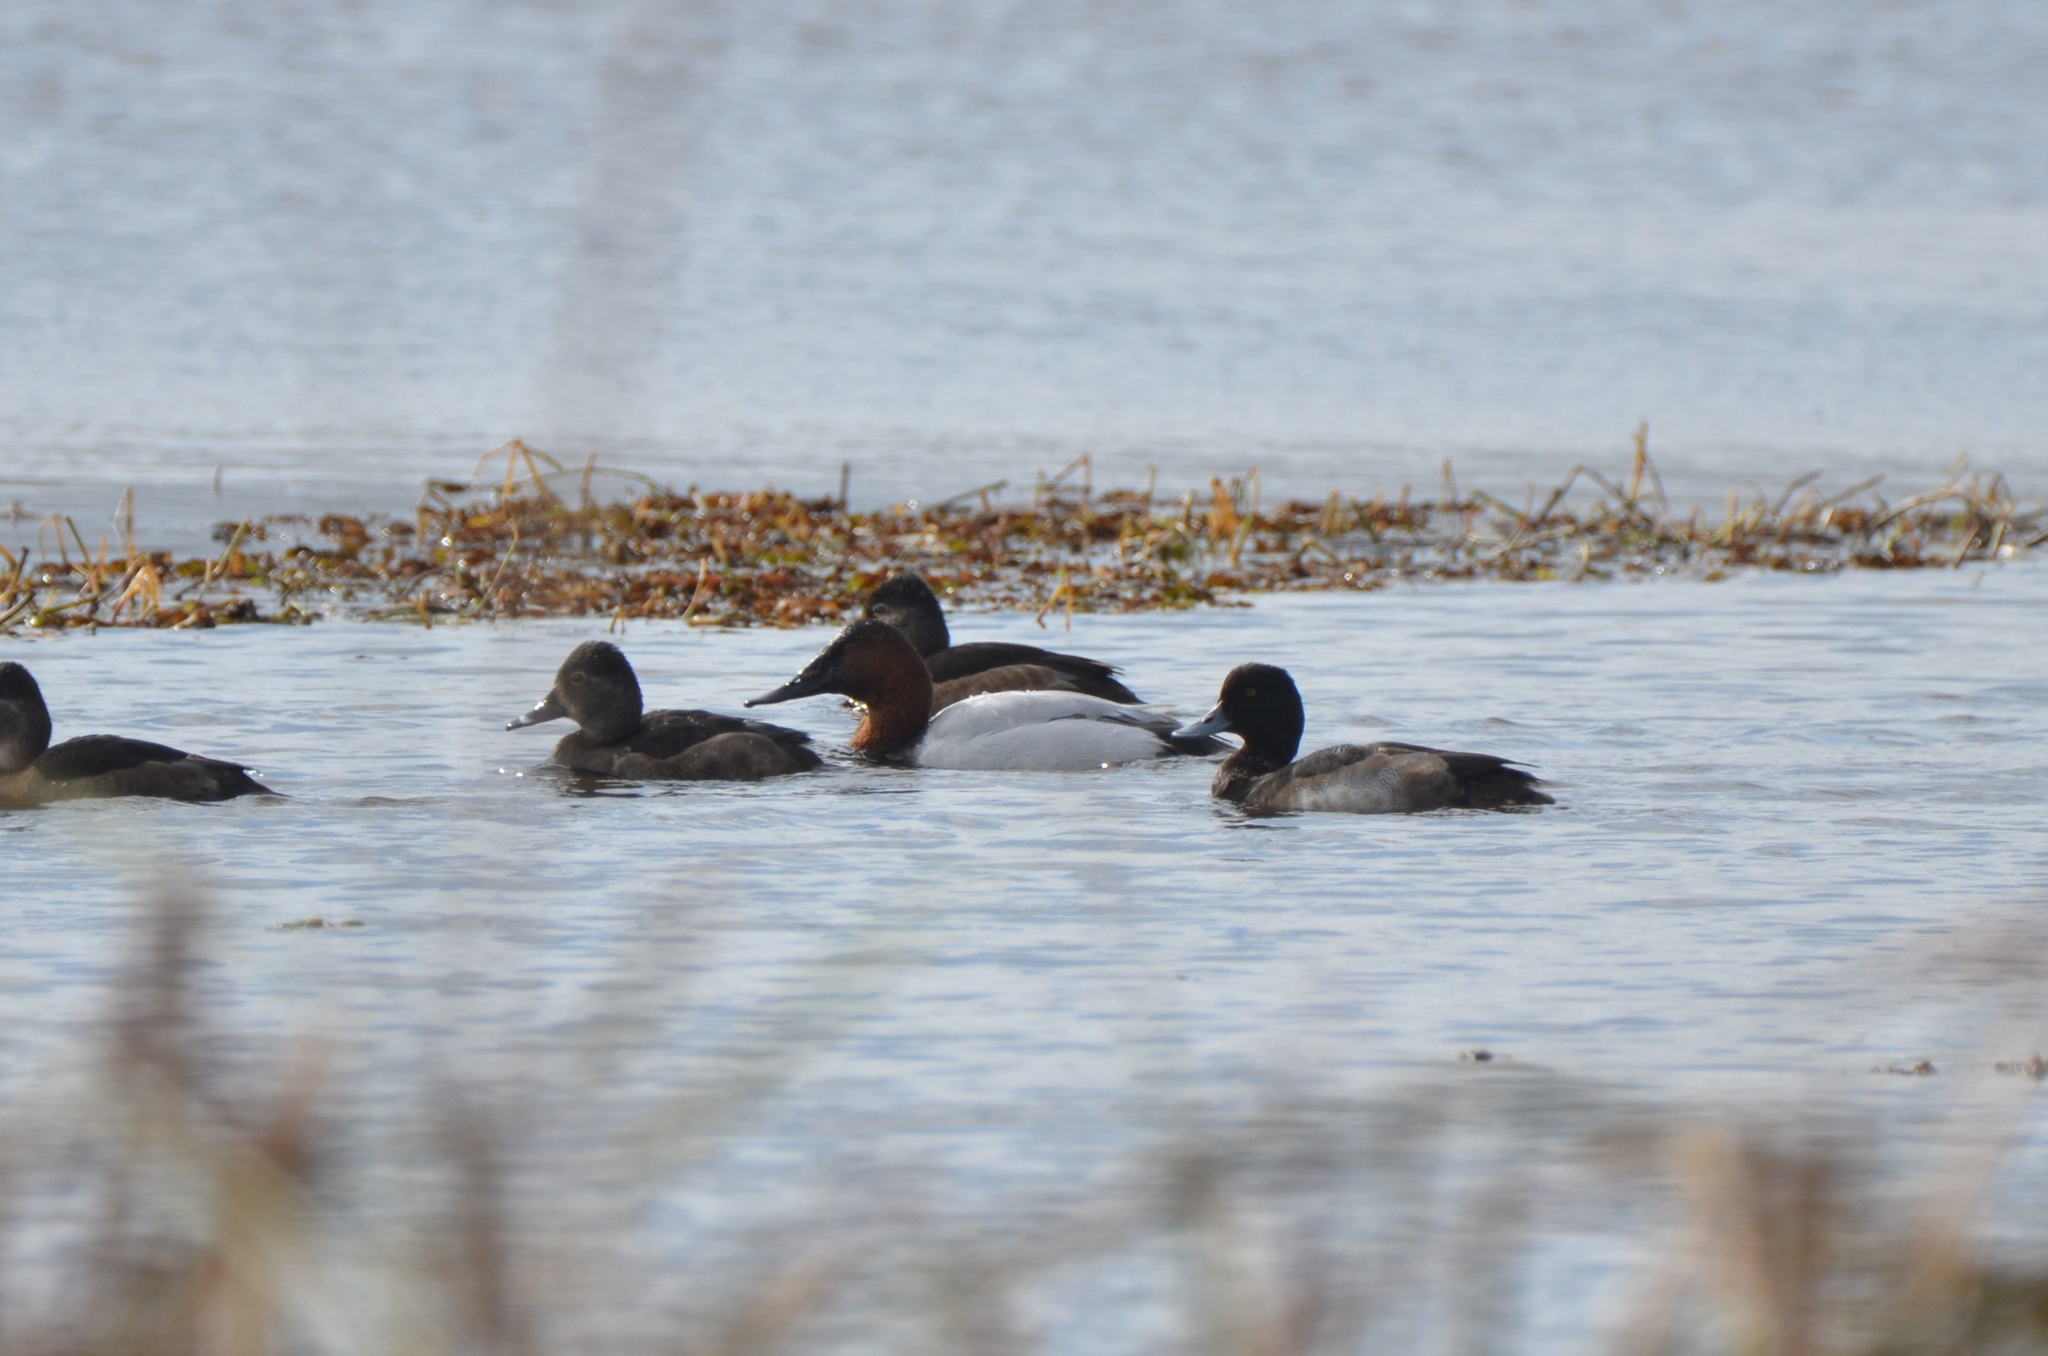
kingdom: Animalia
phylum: Chordata
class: Aves
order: Anseriformes
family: Anatidae
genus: Aythya
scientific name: Aythya valisineria
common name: Canvasback
